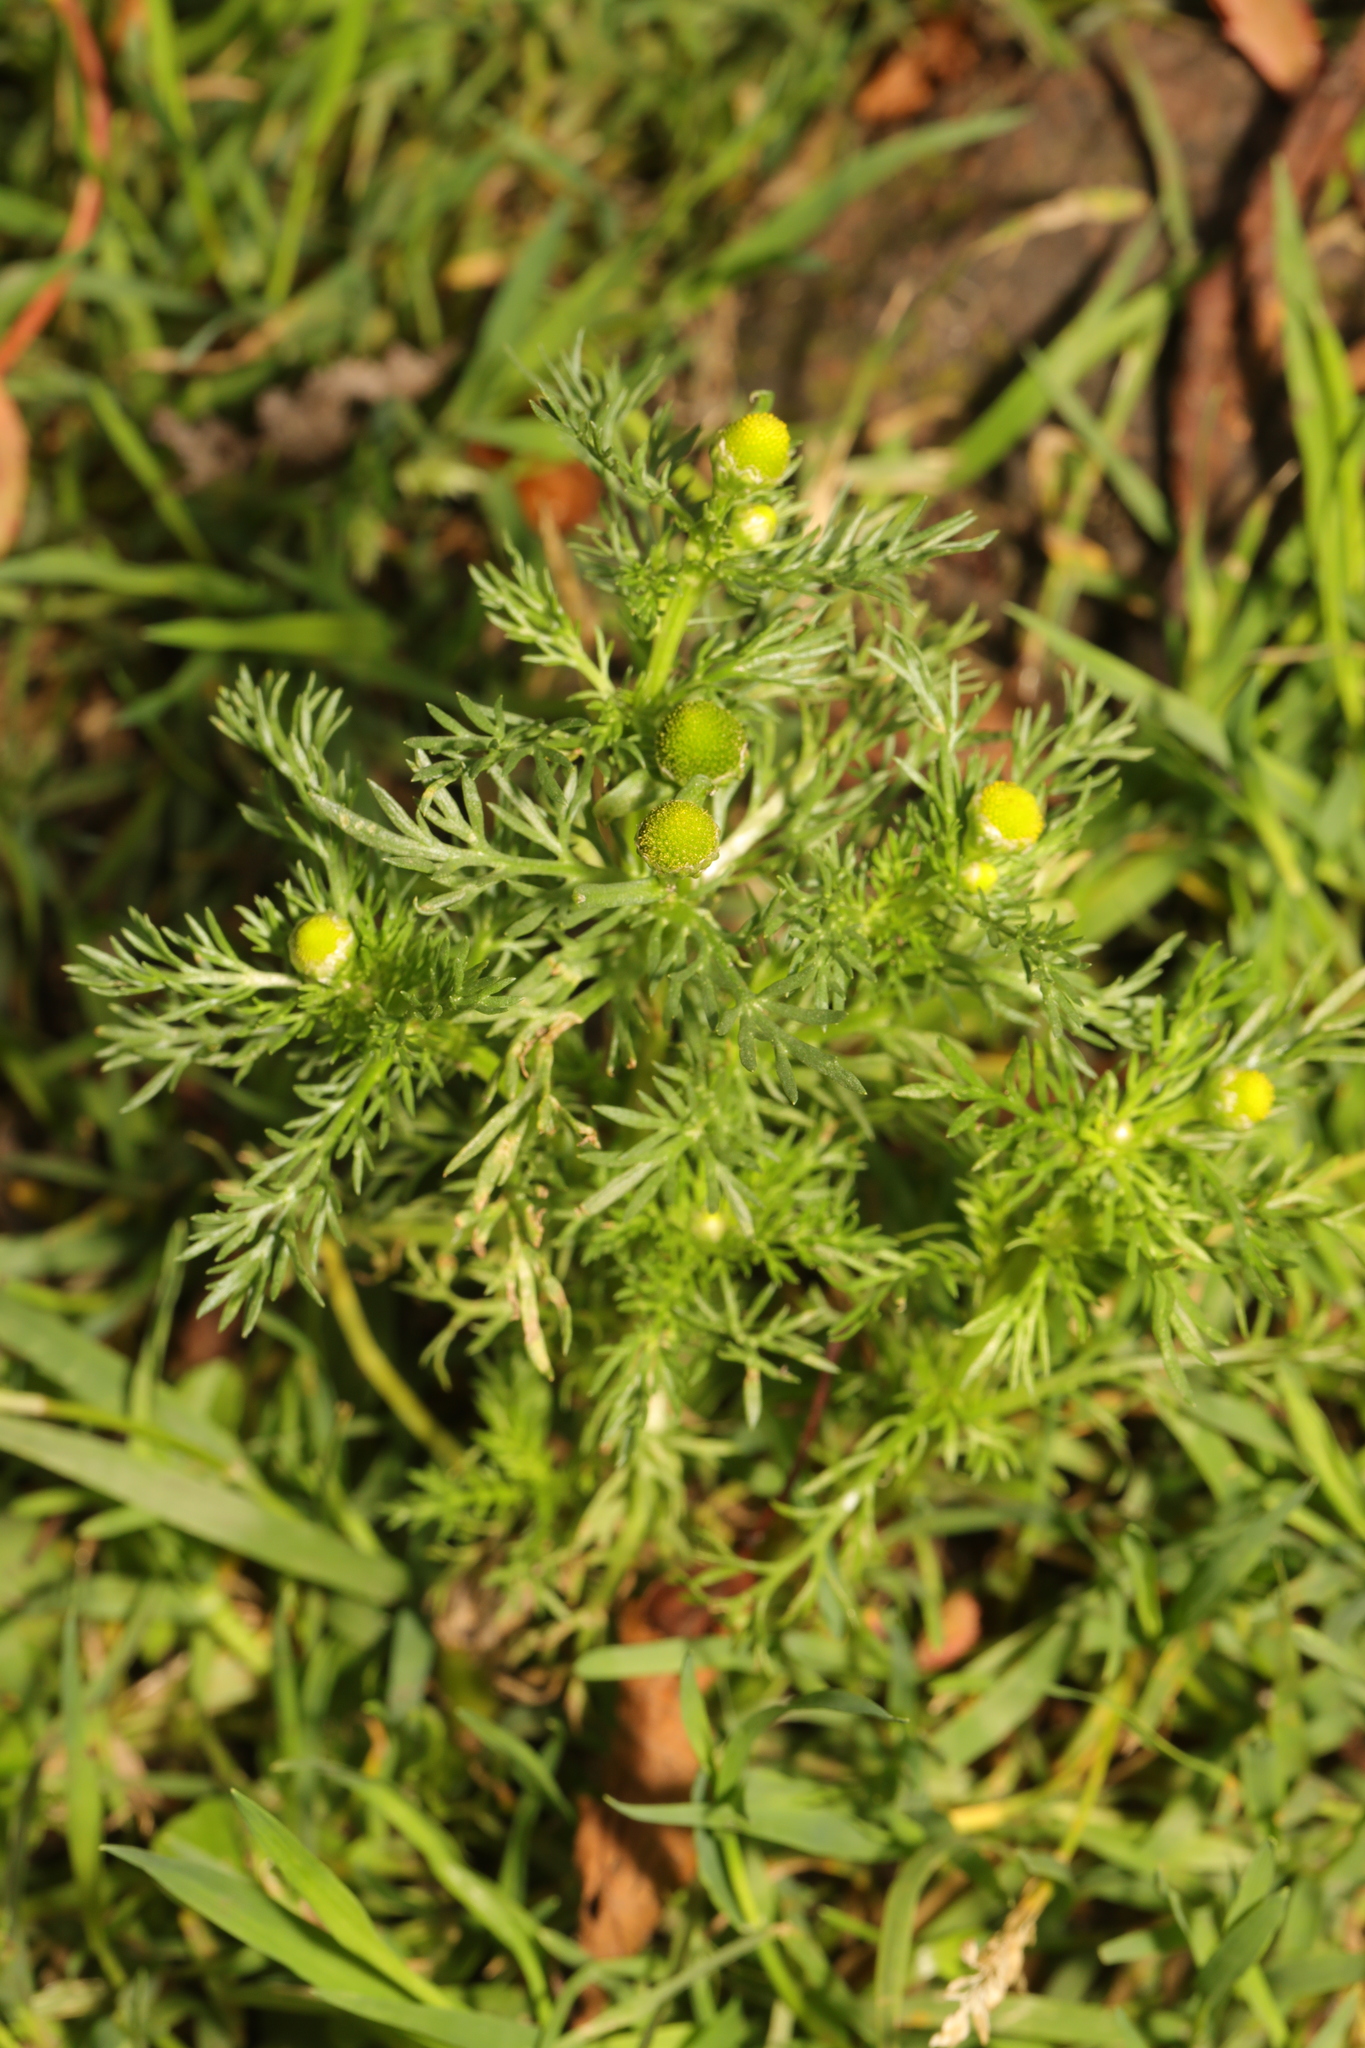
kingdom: Plantae
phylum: Tracheophyta
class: Magnoliopsida
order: Asterales
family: Asteraceae
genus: Matricaria
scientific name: Matricaria discoidea
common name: Disc mayweed
